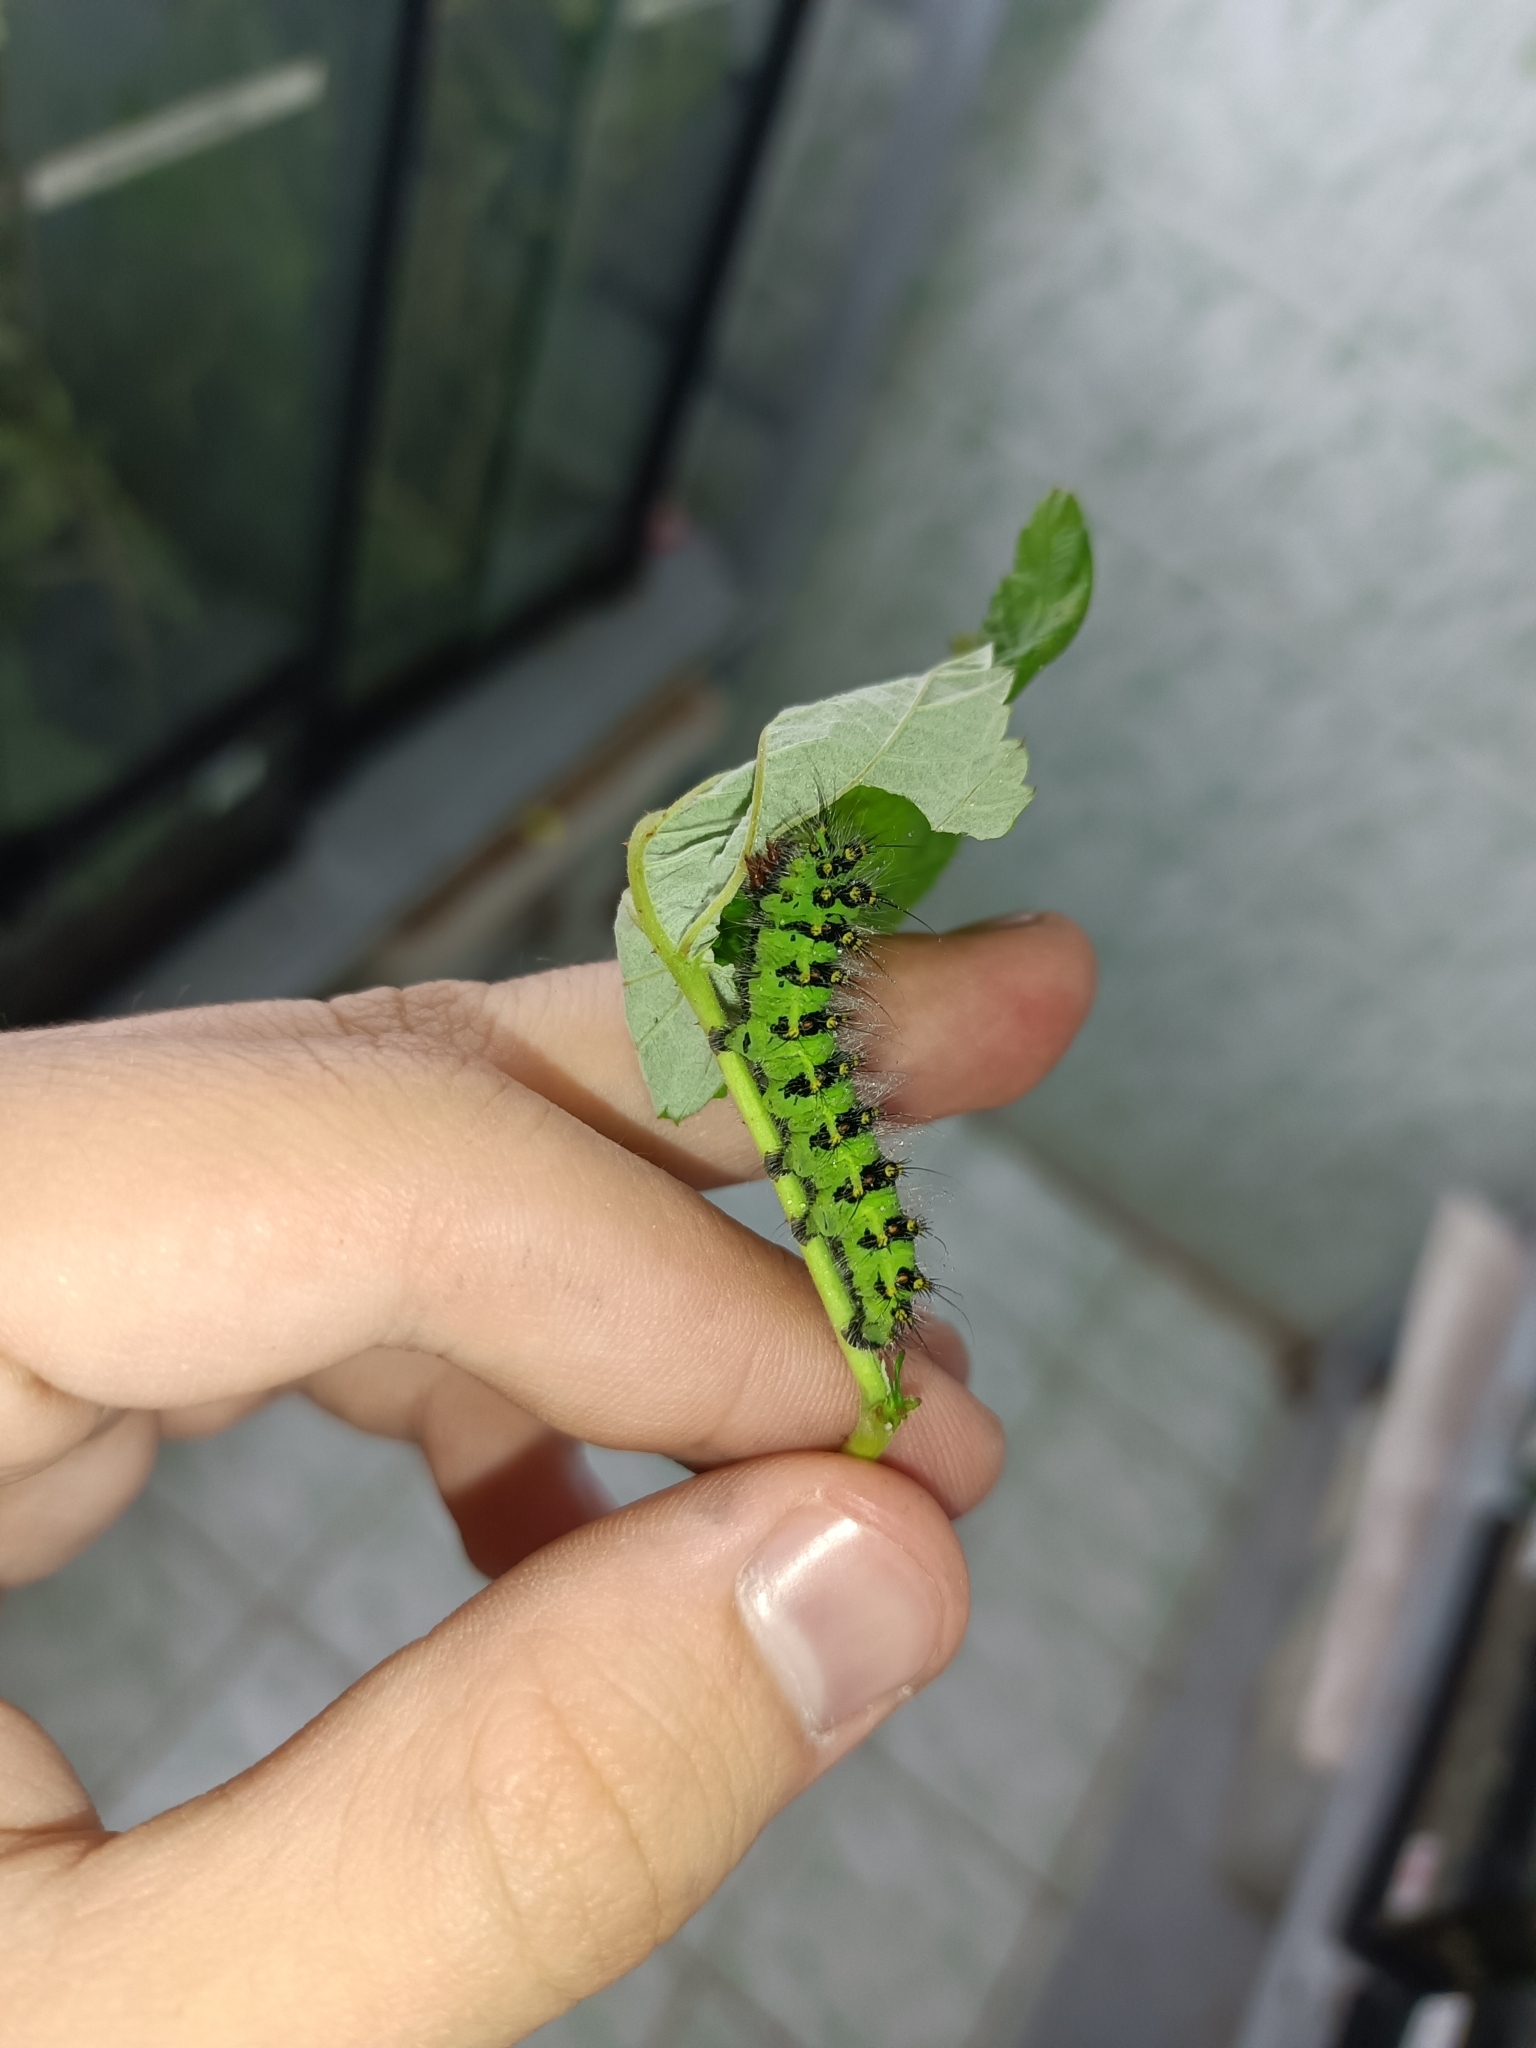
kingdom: Animalia
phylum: Arthropoda
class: Insecta
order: Lepidoptera
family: Saturniidae
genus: Saturnia
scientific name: Saturnia pavonia
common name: Emperor moth
